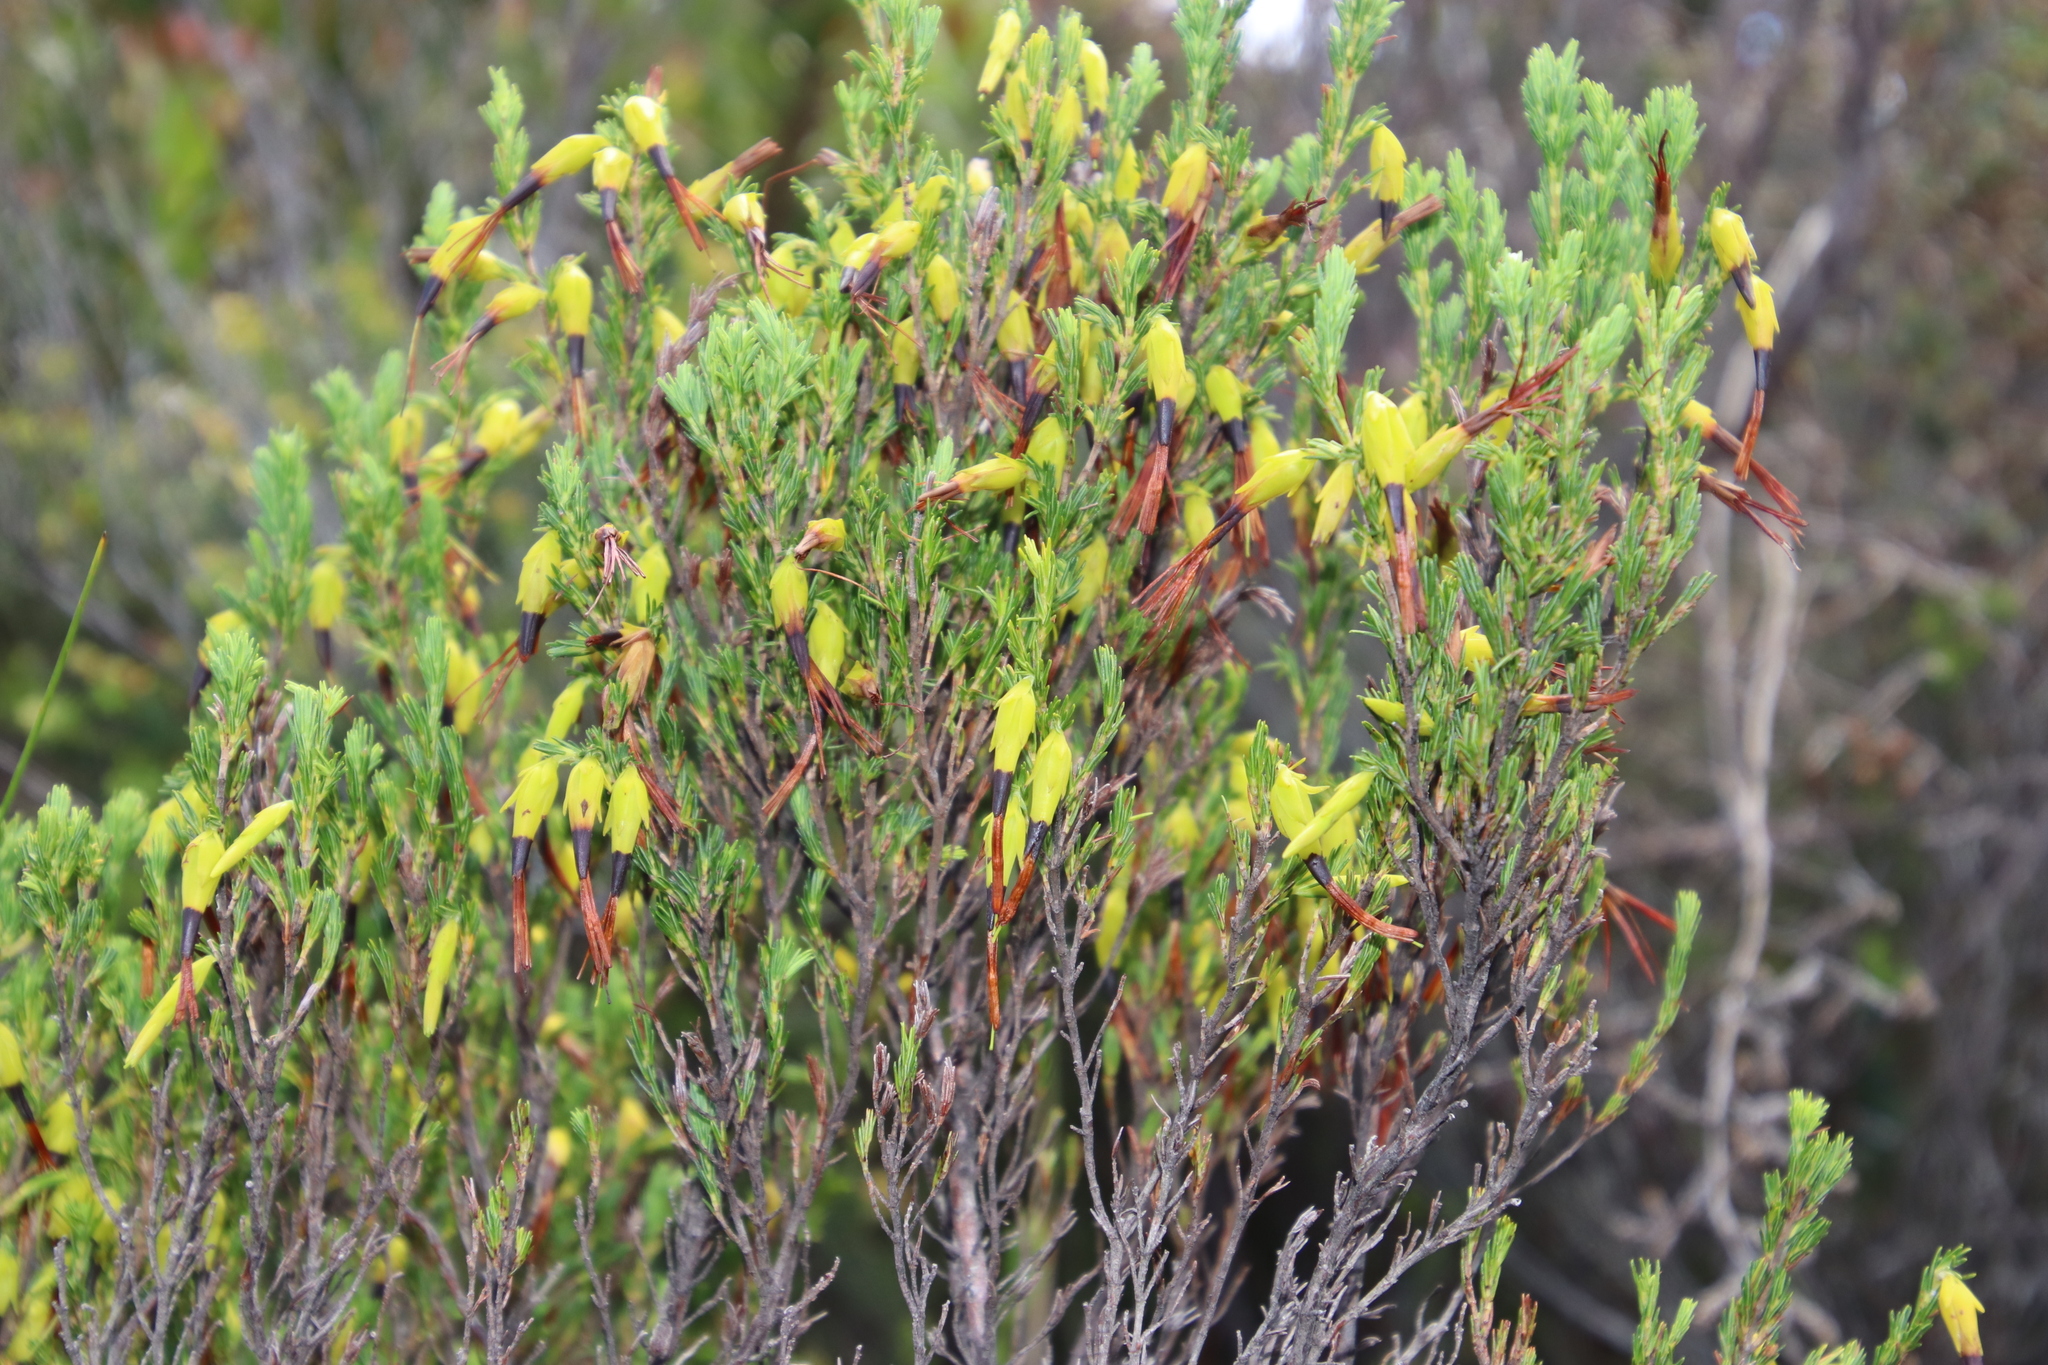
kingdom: Plantae
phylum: Tracheophyta
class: Magnoliopsida
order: Ericales
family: Ericaceae
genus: Erica
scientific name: Erica melastoma
